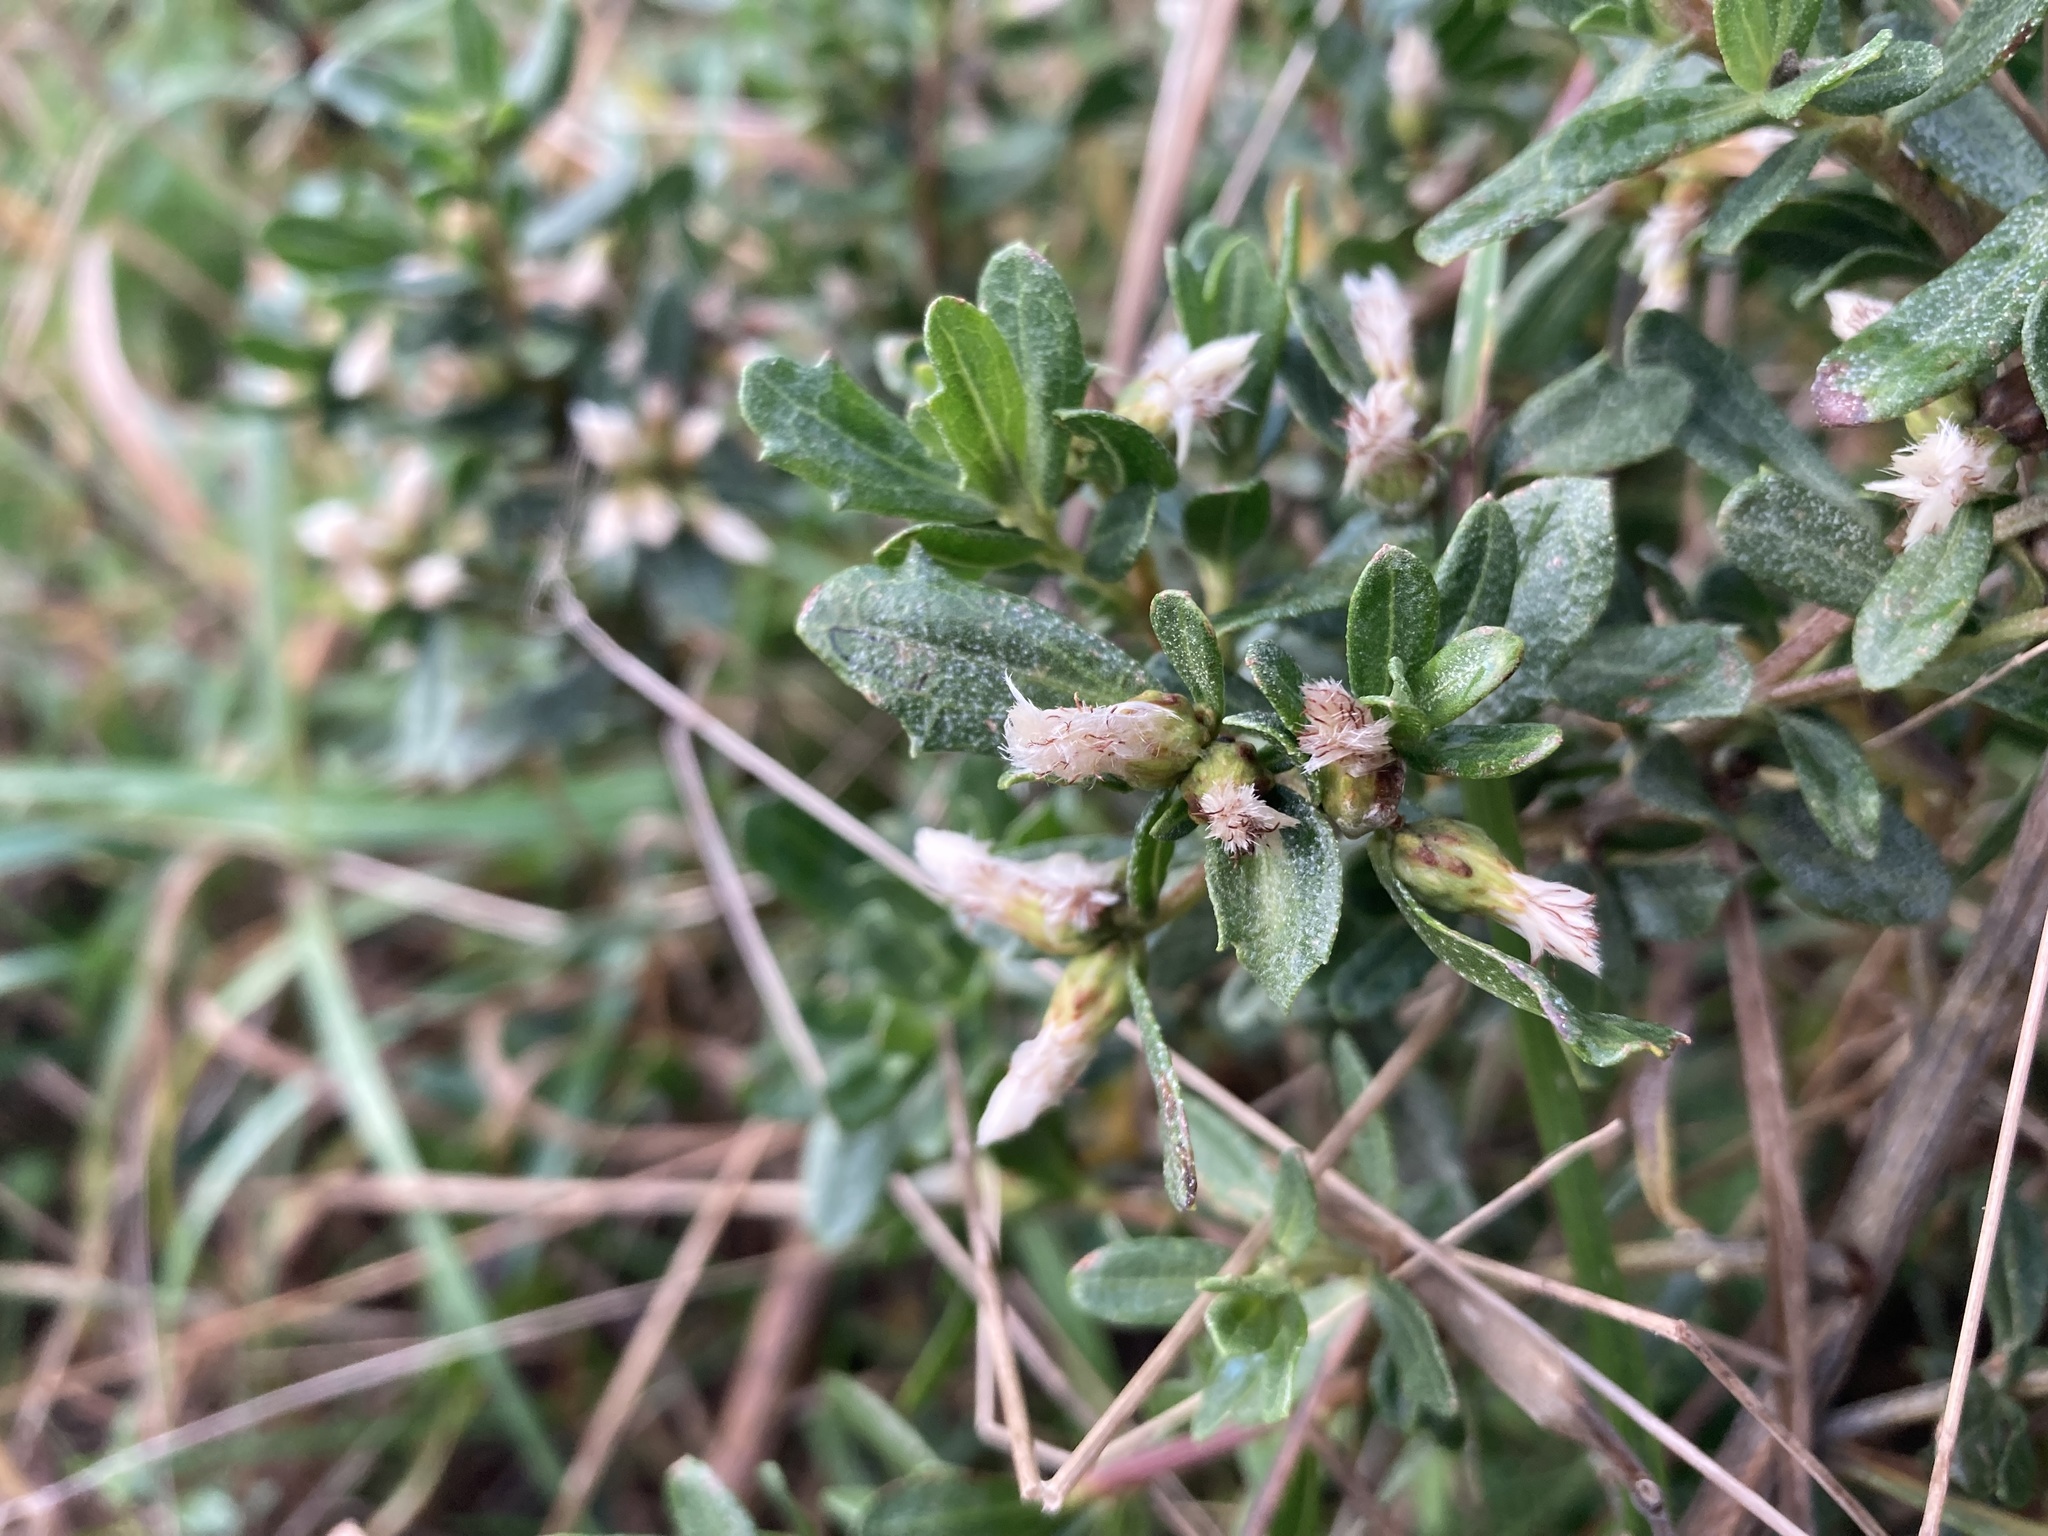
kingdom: Plantae
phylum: Tracheophyta
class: Magnoliopsida
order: Asterales
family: Asteraceae
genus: Baccharis
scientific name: Baccharis pilularis
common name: Coyotebrush
